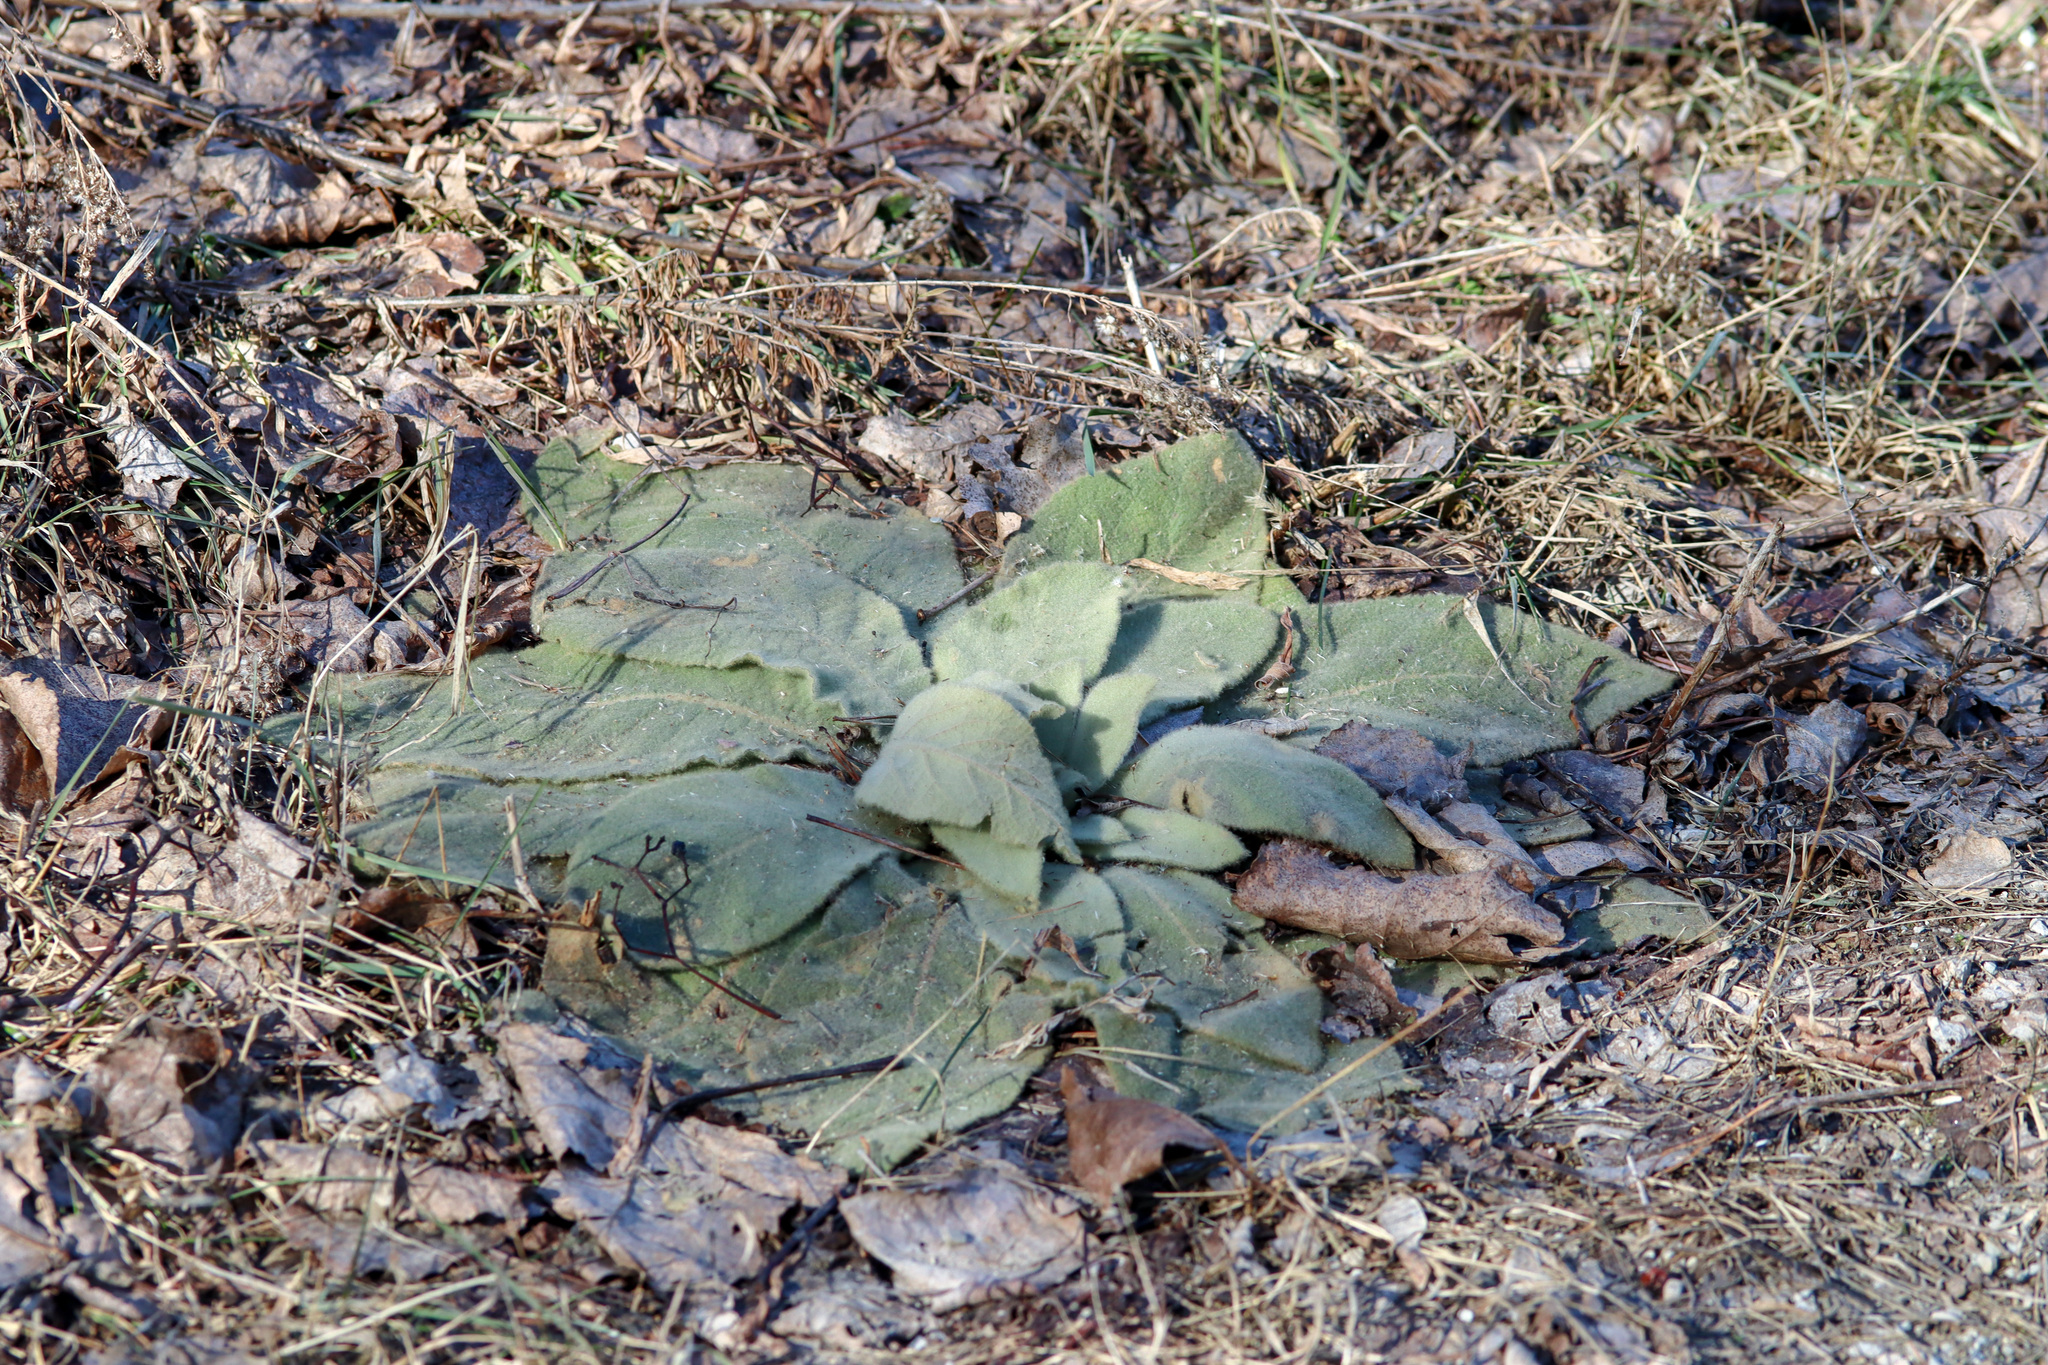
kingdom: Plantae
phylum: Tracheophyta
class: Magnoliopsida
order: Lamiales
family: Scrophulariaceae
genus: Verbascum
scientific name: Verbascum thapsus
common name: Common mullein
